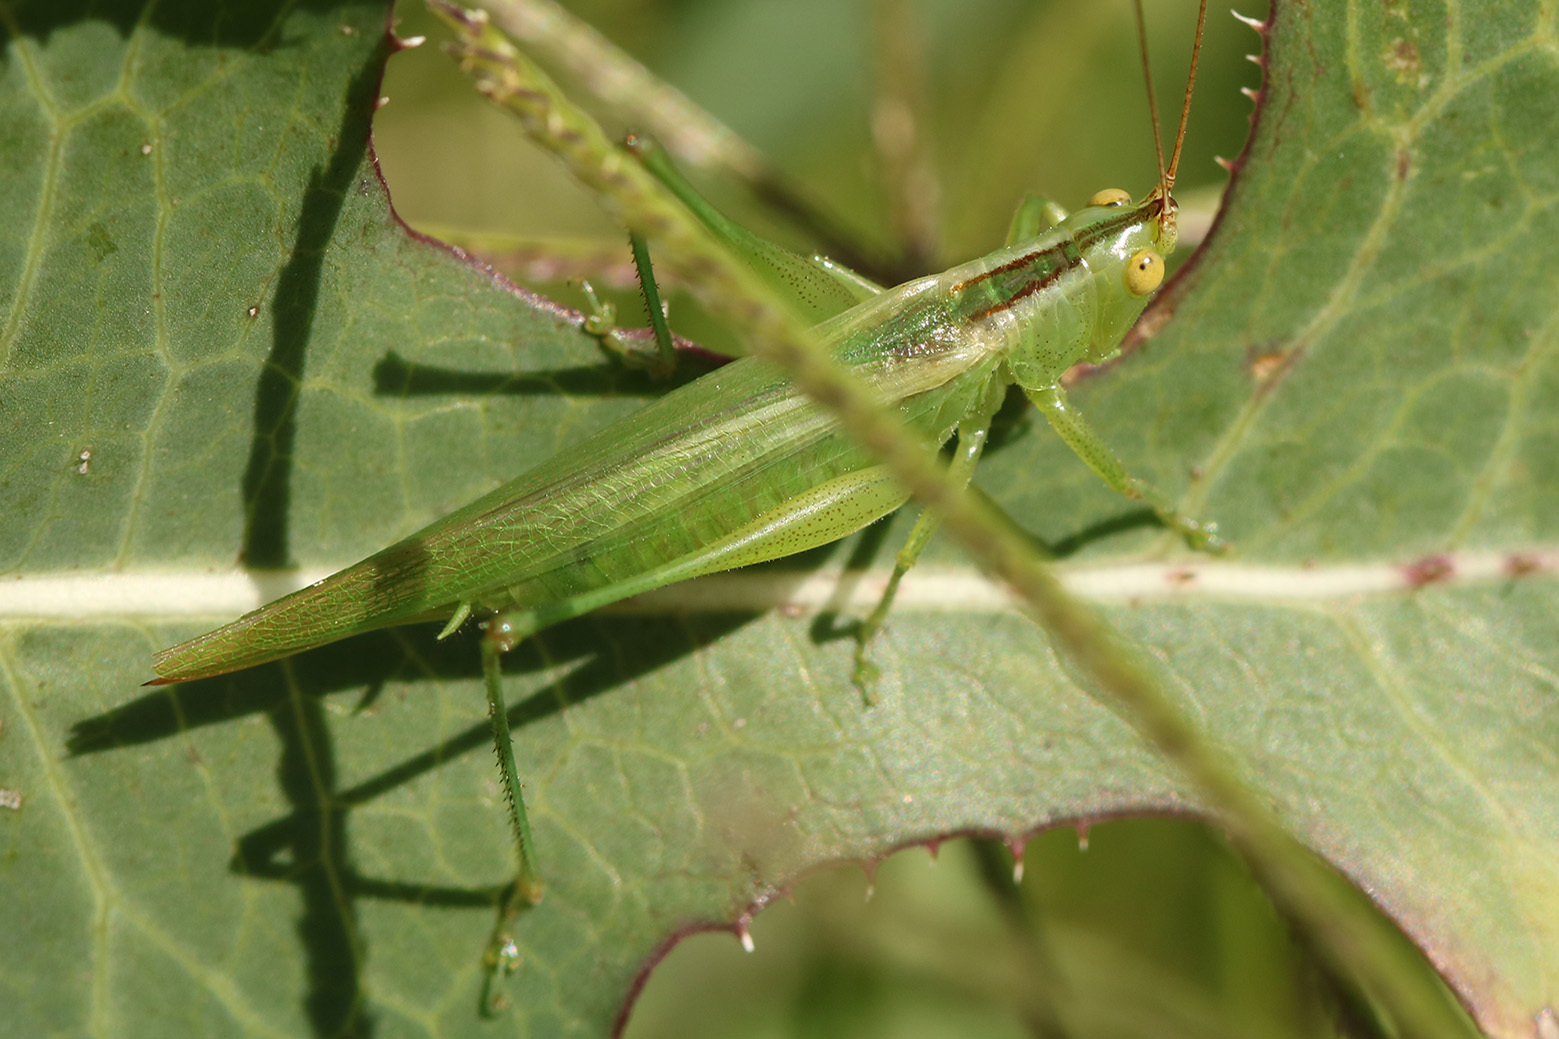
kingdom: Animalia
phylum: Arthropoda
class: Insecta
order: Orthoptera
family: Tettigoniidae
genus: Conocephalus
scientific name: Conocephalus longipes
